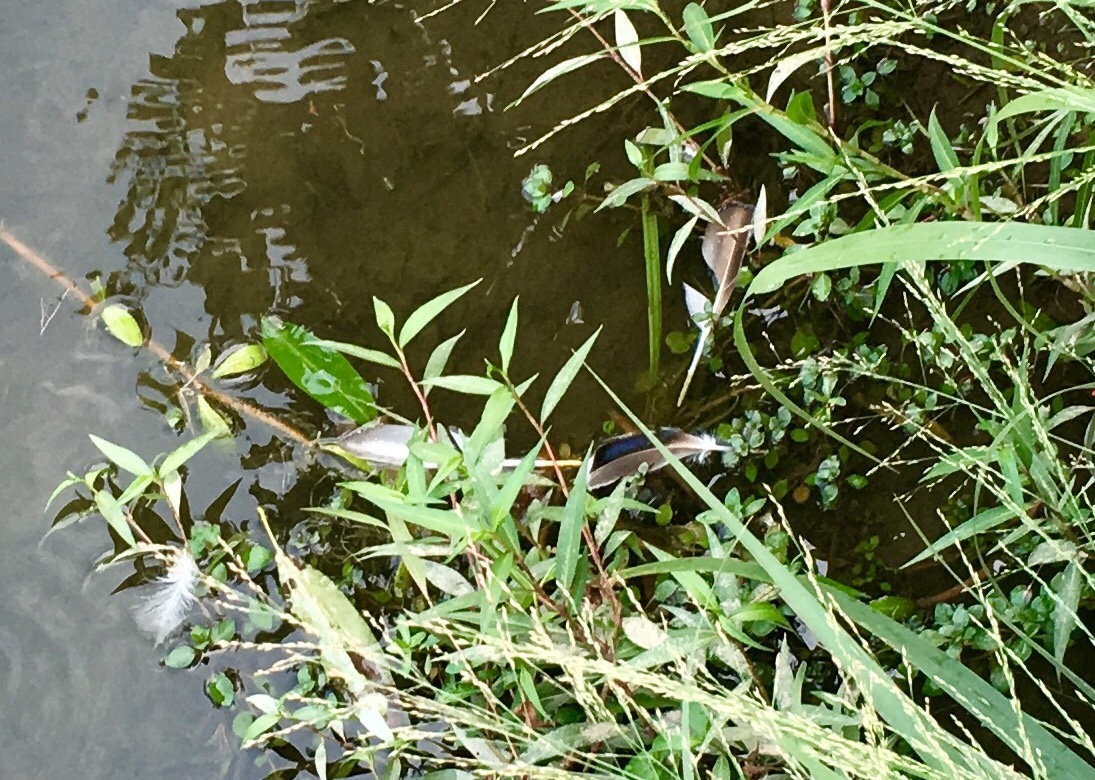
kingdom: Animalia
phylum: Chordata
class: Aves
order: Anseriformes
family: Anatidae
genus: Anas
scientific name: Anas platyrhynchos
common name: Mallard
